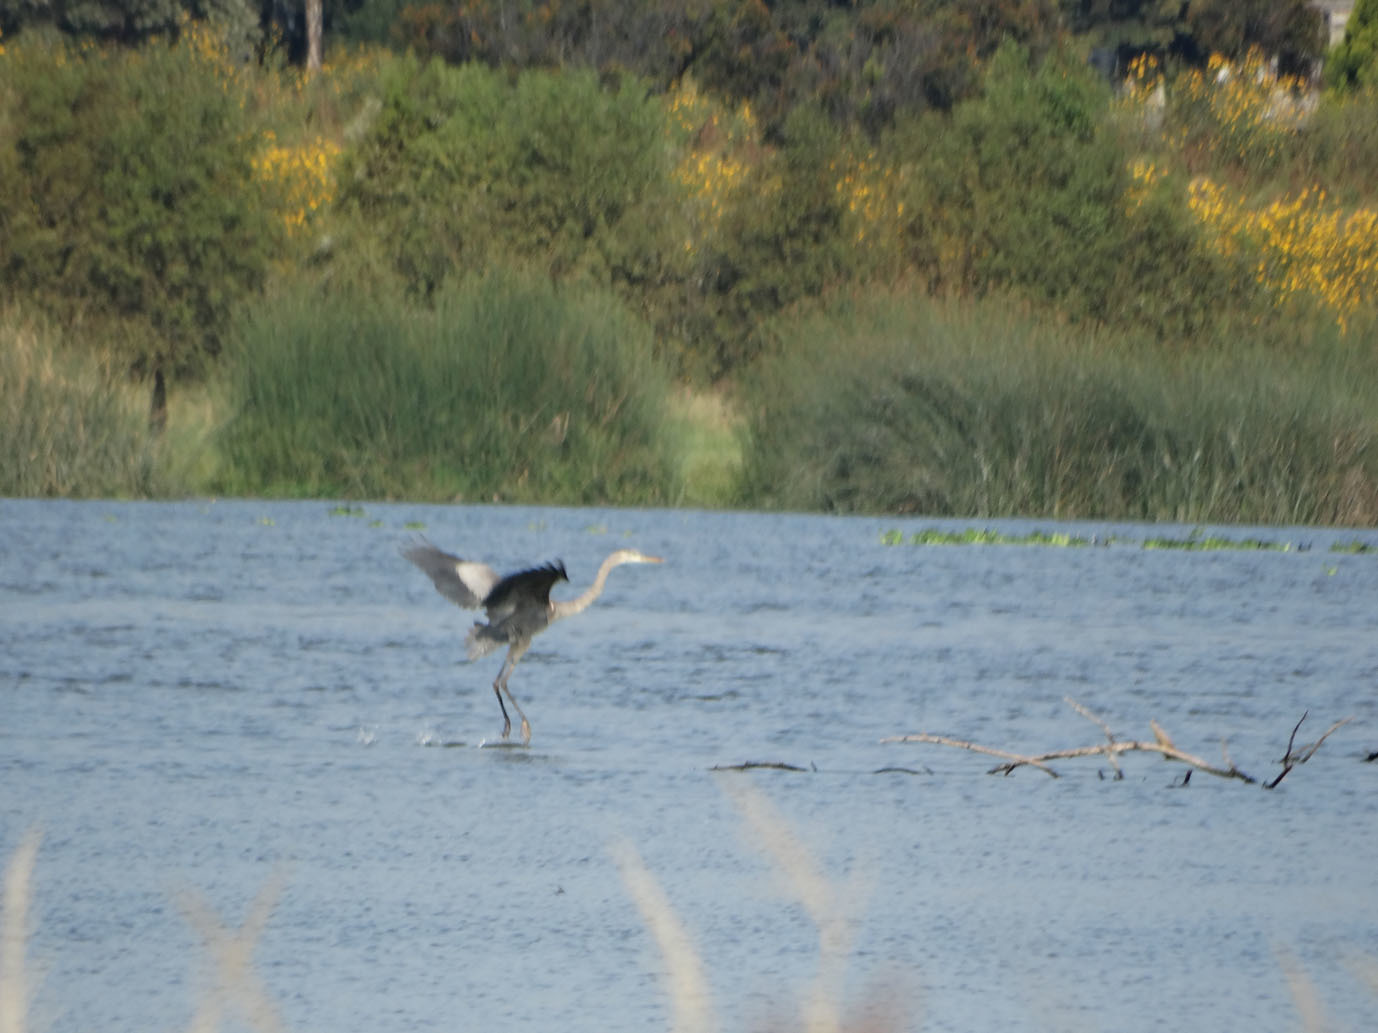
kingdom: Animalia
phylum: Chordata
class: Aves
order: Pelecaniformes
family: Ardeidae
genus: Ardea
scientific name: Ardea herodias
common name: Great blue heron
